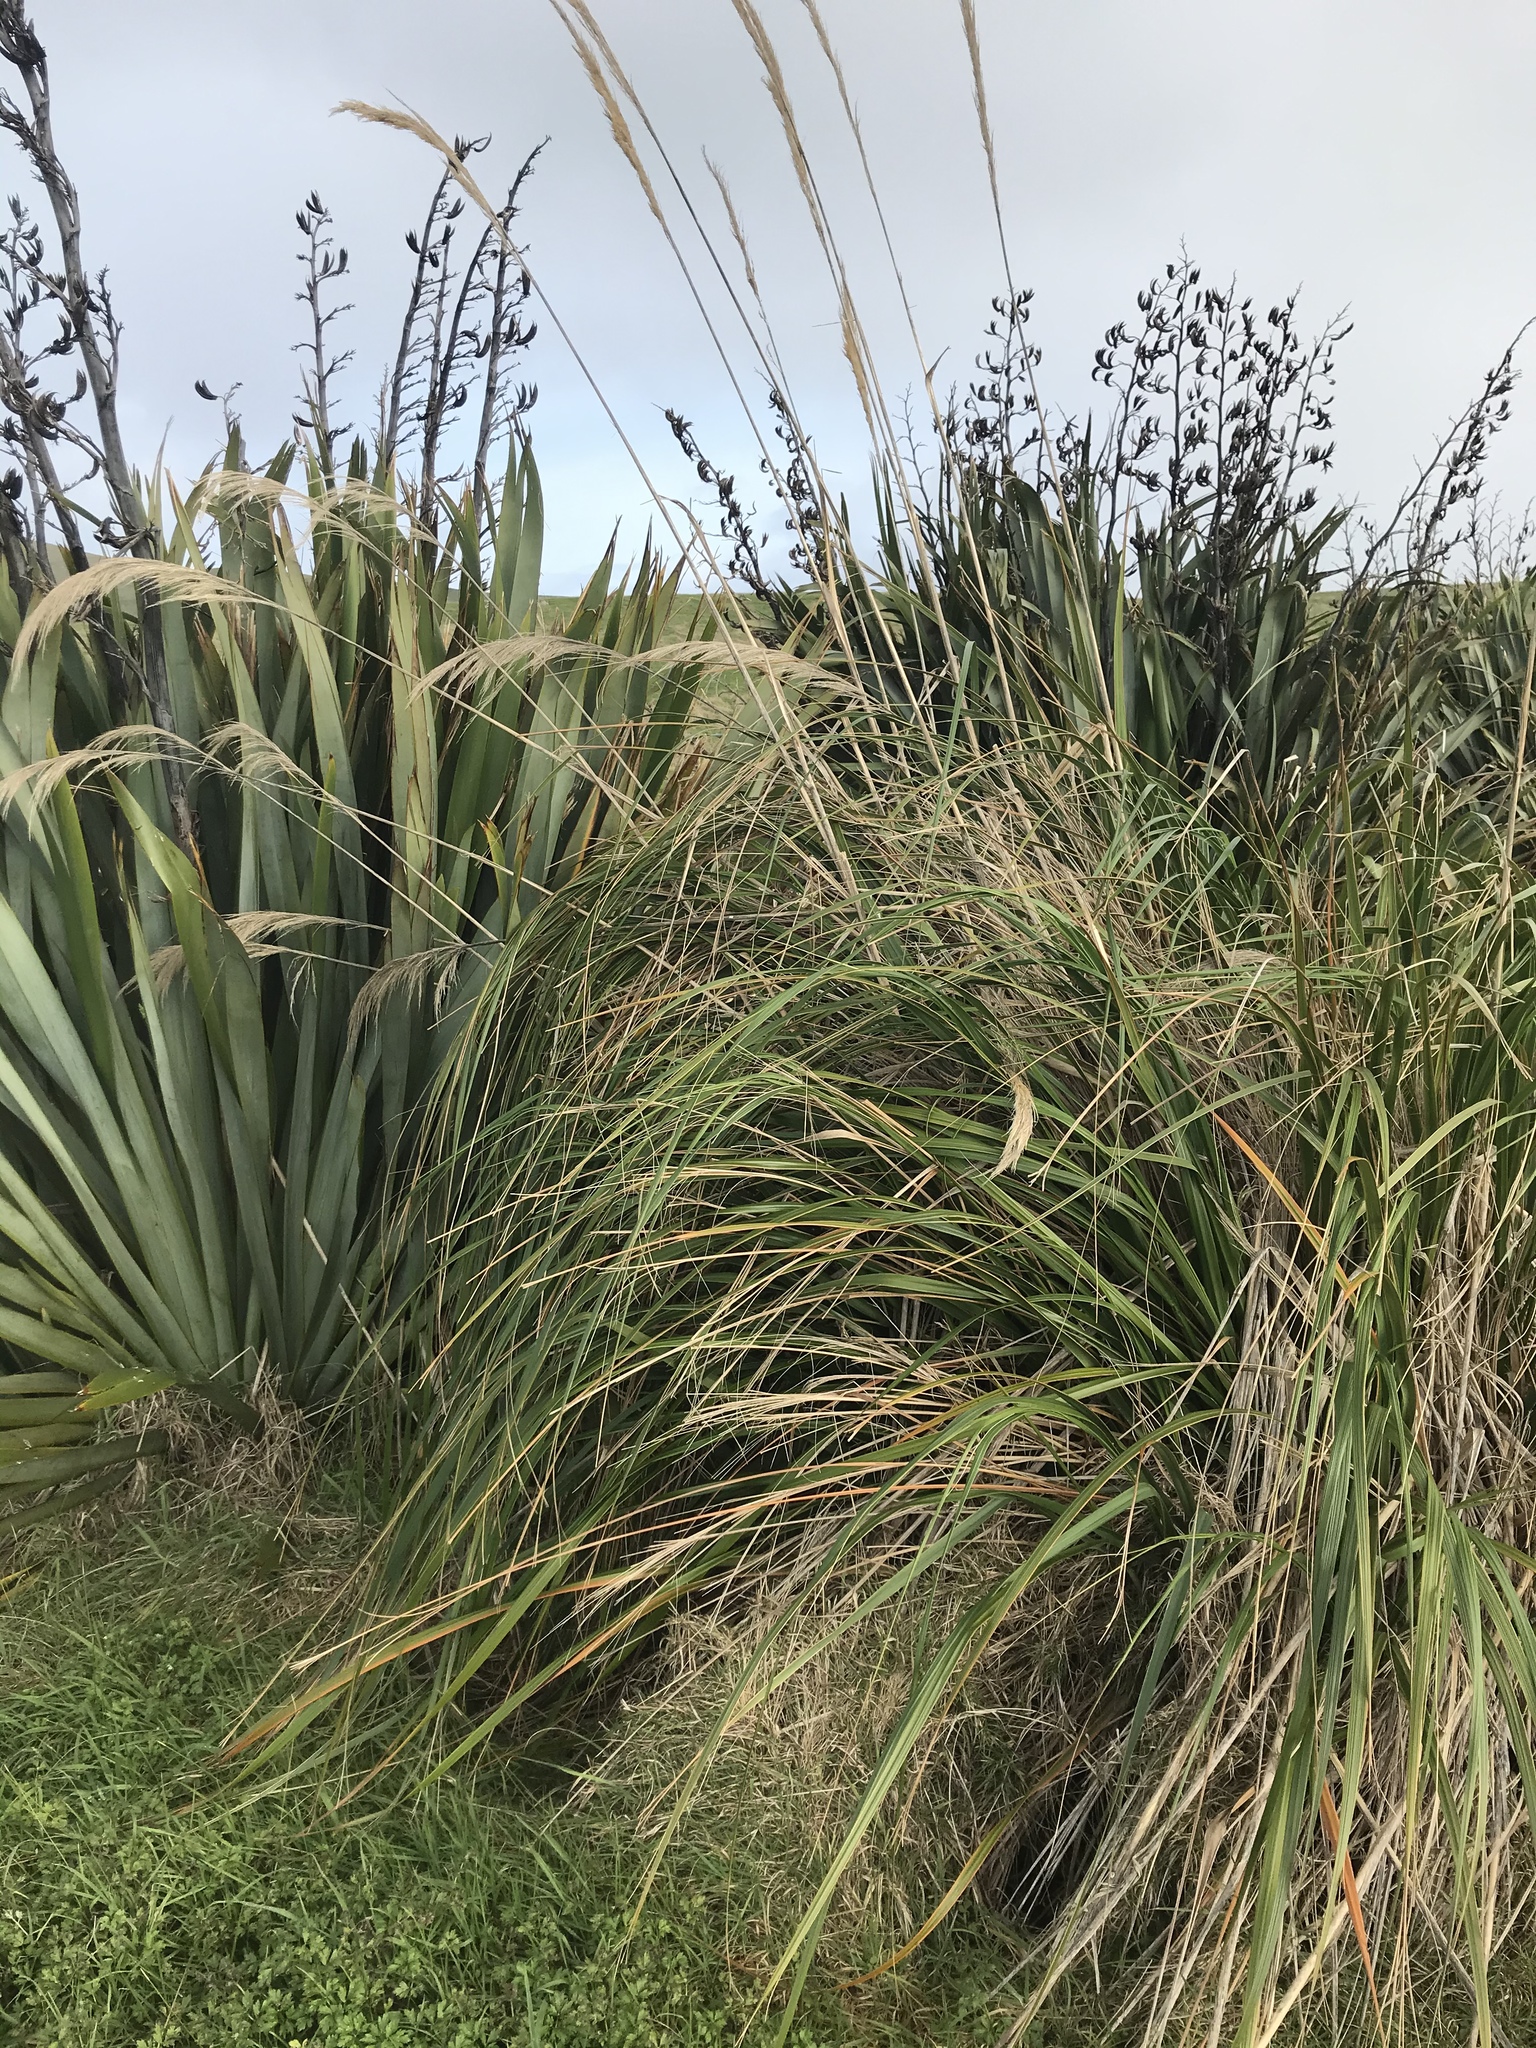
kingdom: Plantae
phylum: Tracheophyta
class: Liliopsida
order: Poales
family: Poaceae
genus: Austroderia
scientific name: Austroderia turbaria
